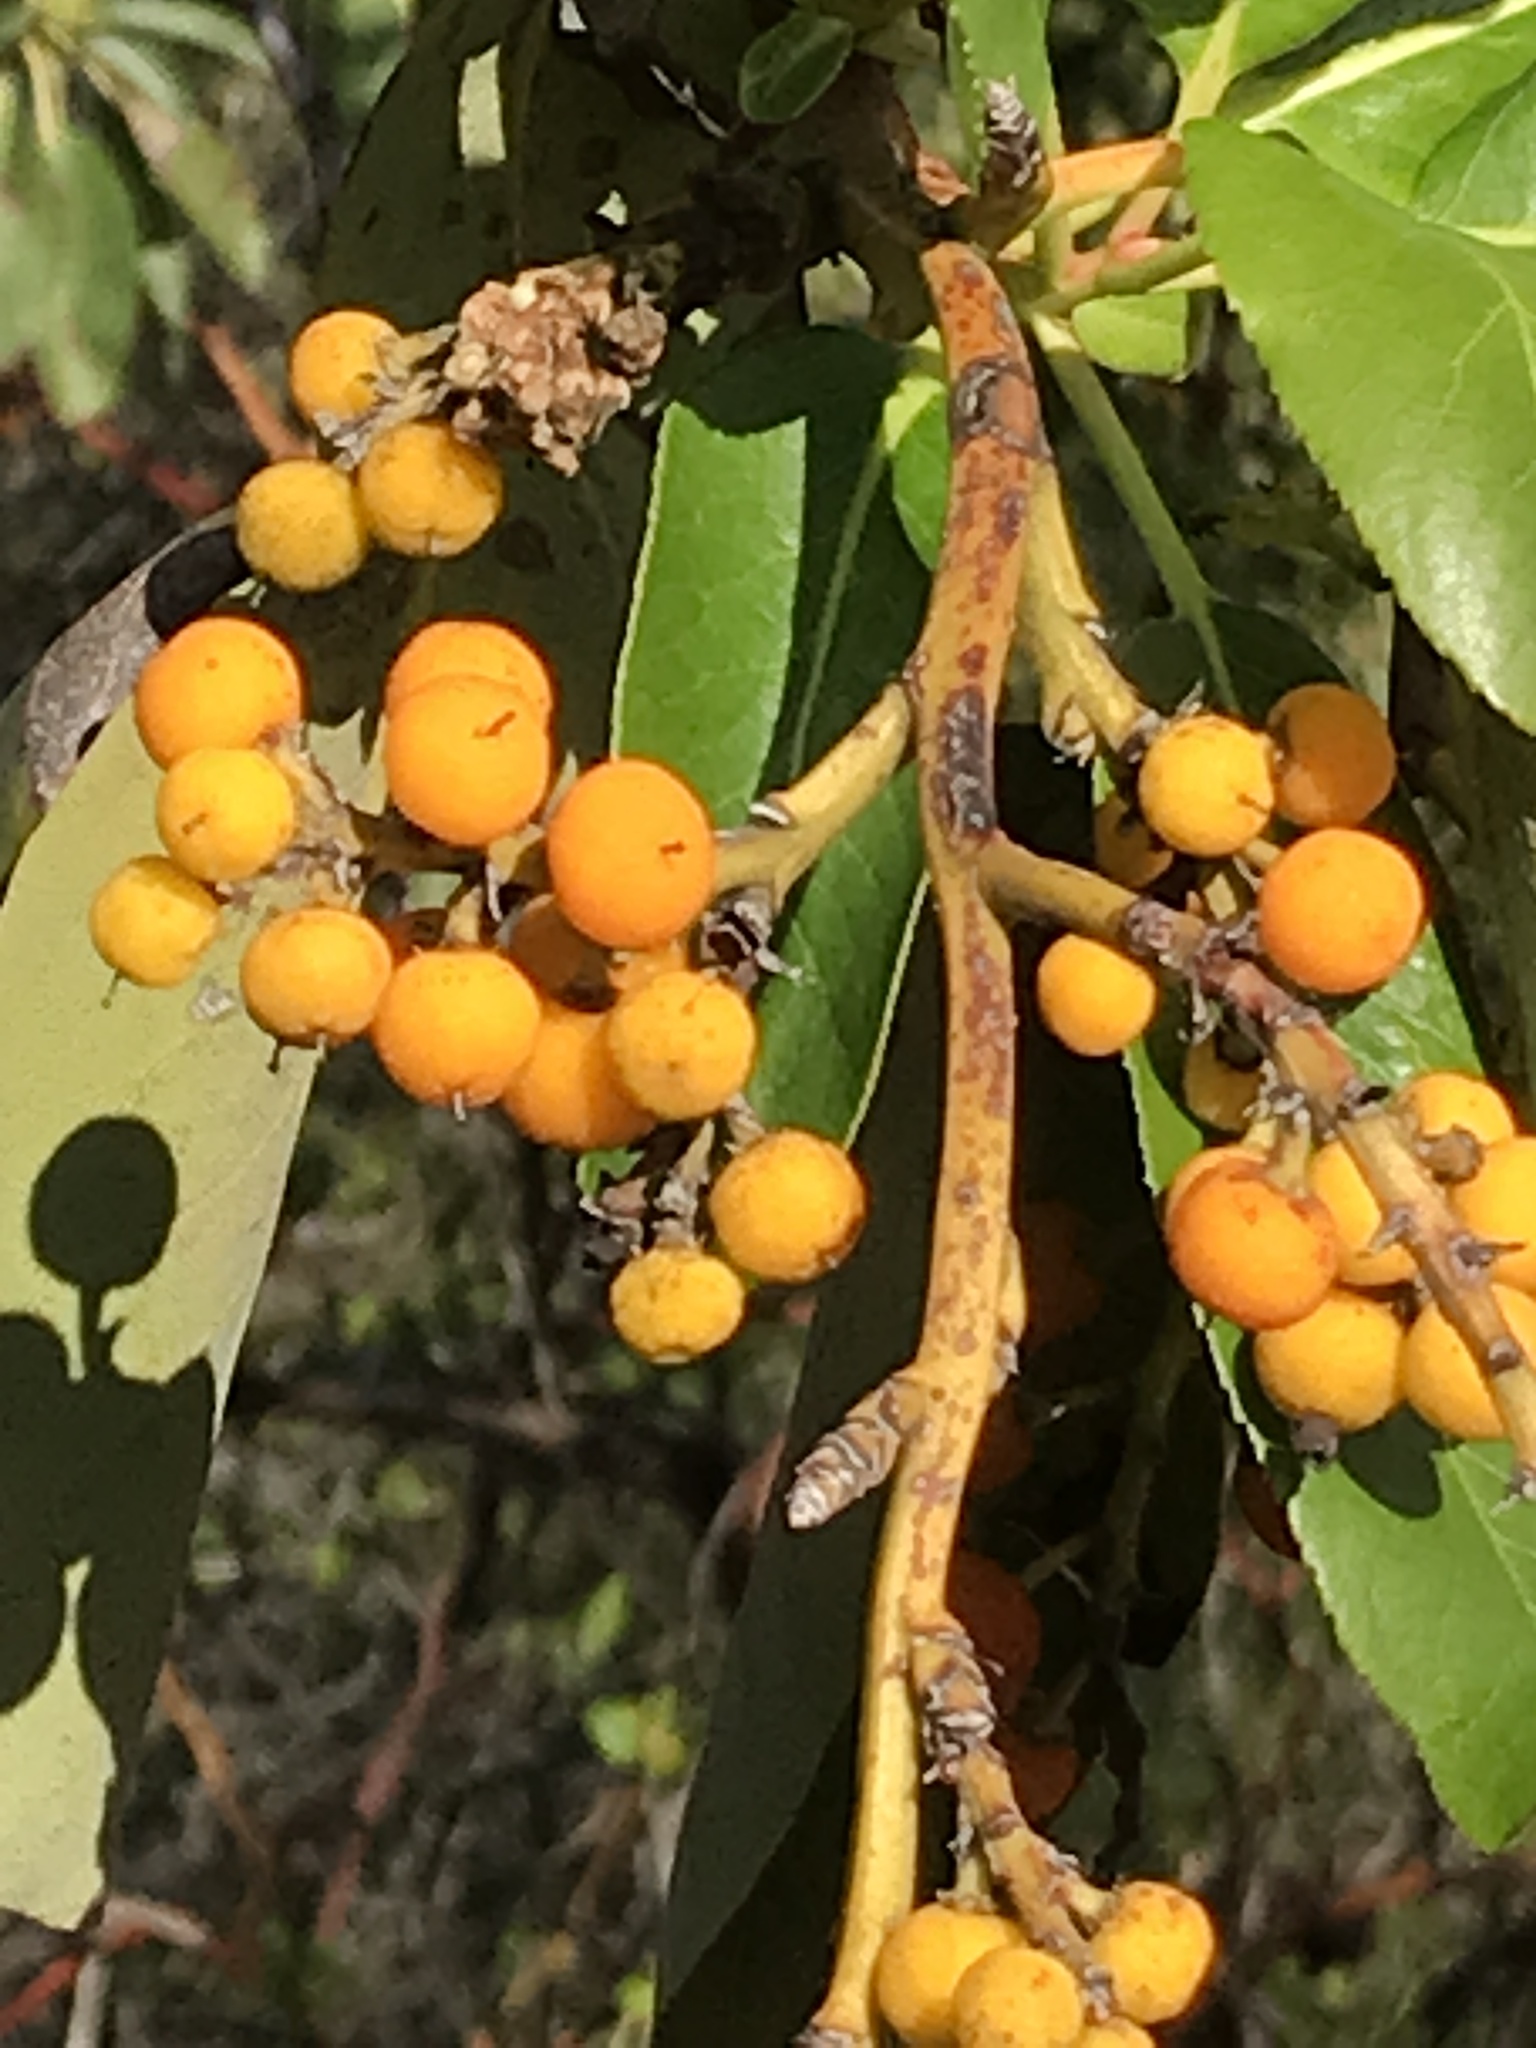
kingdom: Plantae
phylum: Tracheophyta
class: Magnoliopsida
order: Ericales
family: Ericaceae
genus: Arbutus
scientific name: Arbutus menziesii
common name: Pacific madrone
